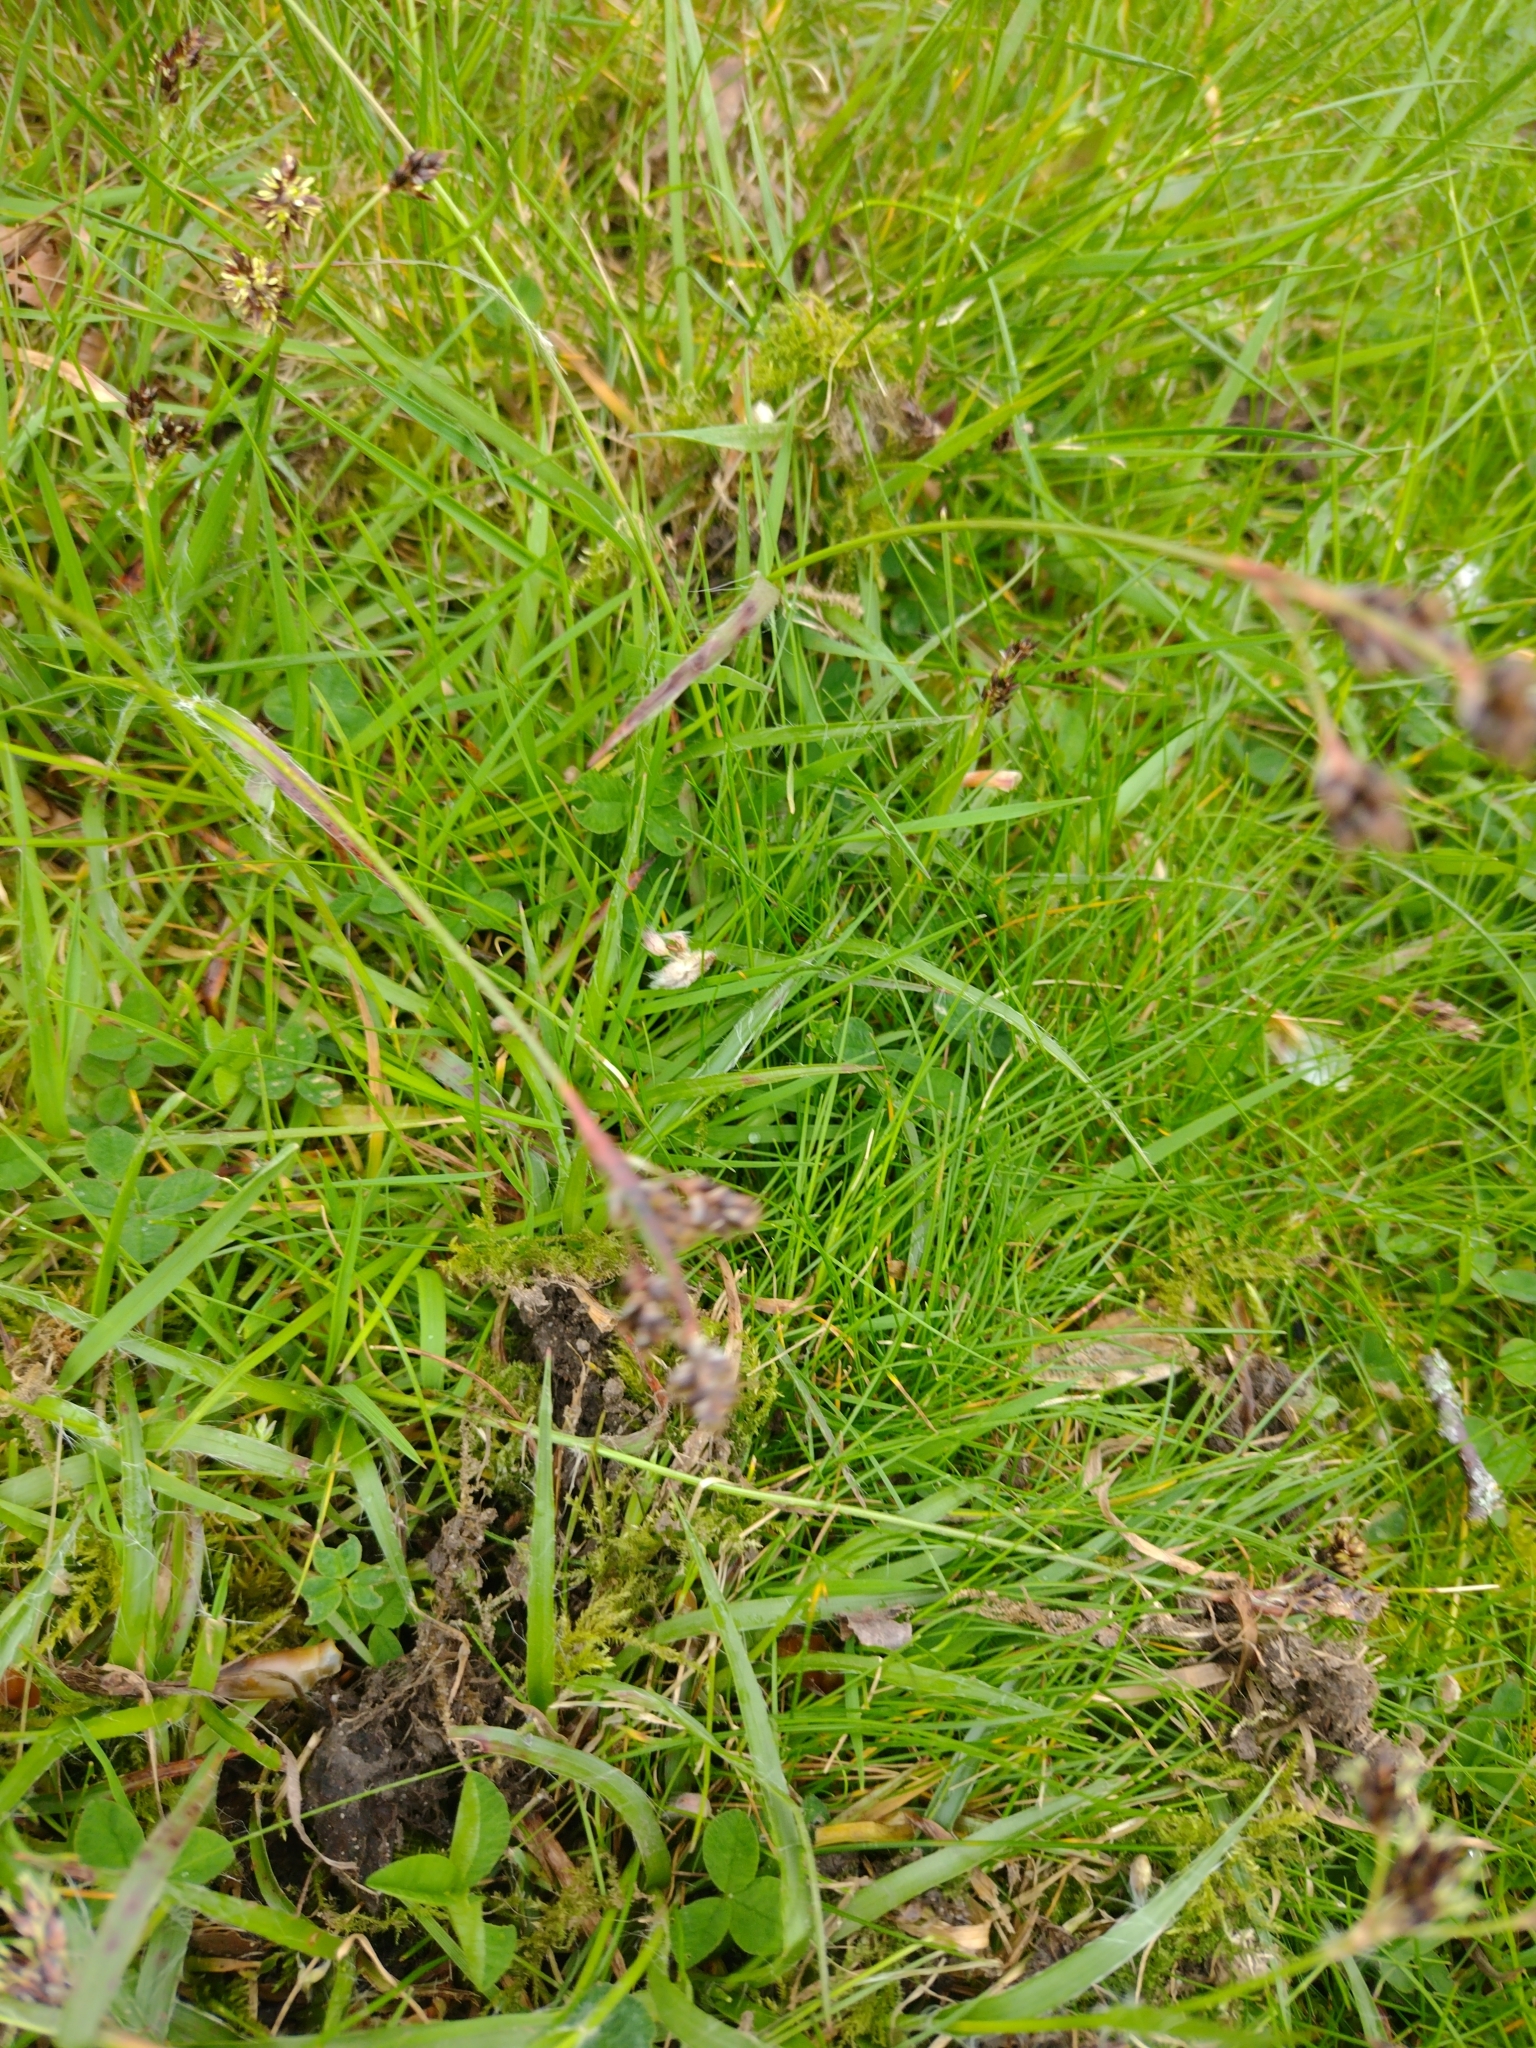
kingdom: Plantae
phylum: Tracheophyta
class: Liliopsida
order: Poales
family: Juncaceae
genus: Luzula
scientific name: Luzula campestris
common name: Field wood-rush
